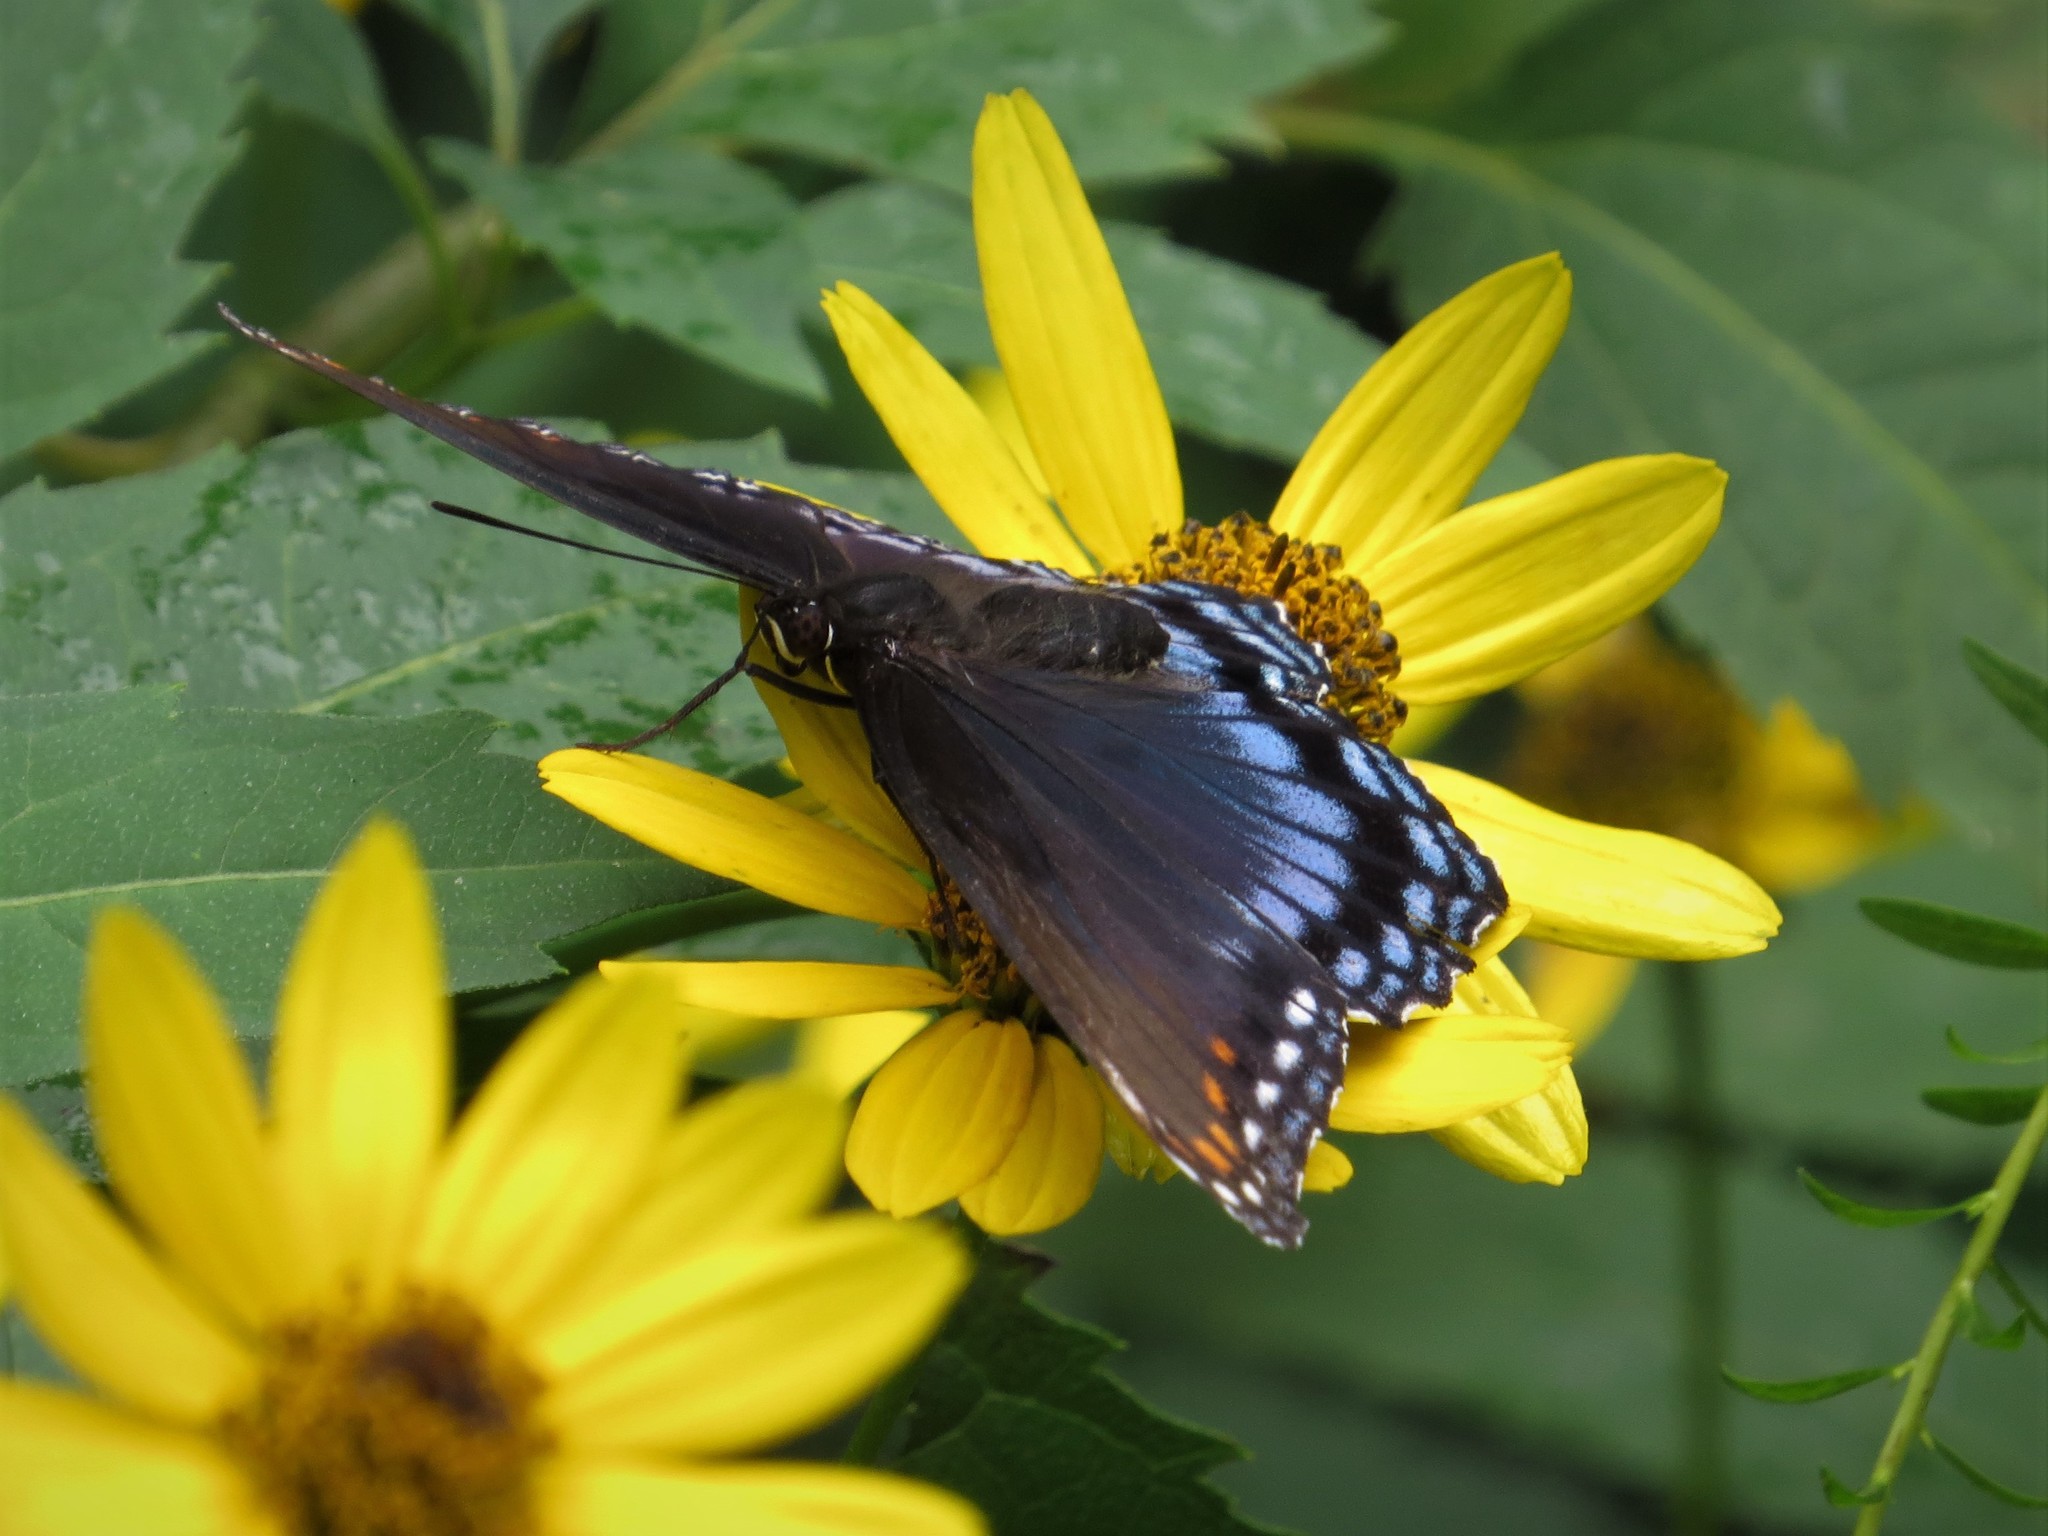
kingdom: Animalia
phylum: Arthropoda
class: Insecta
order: Lepidoptera
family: Nymphalidae
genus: Limenitis
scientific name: Limenitis astyanax
